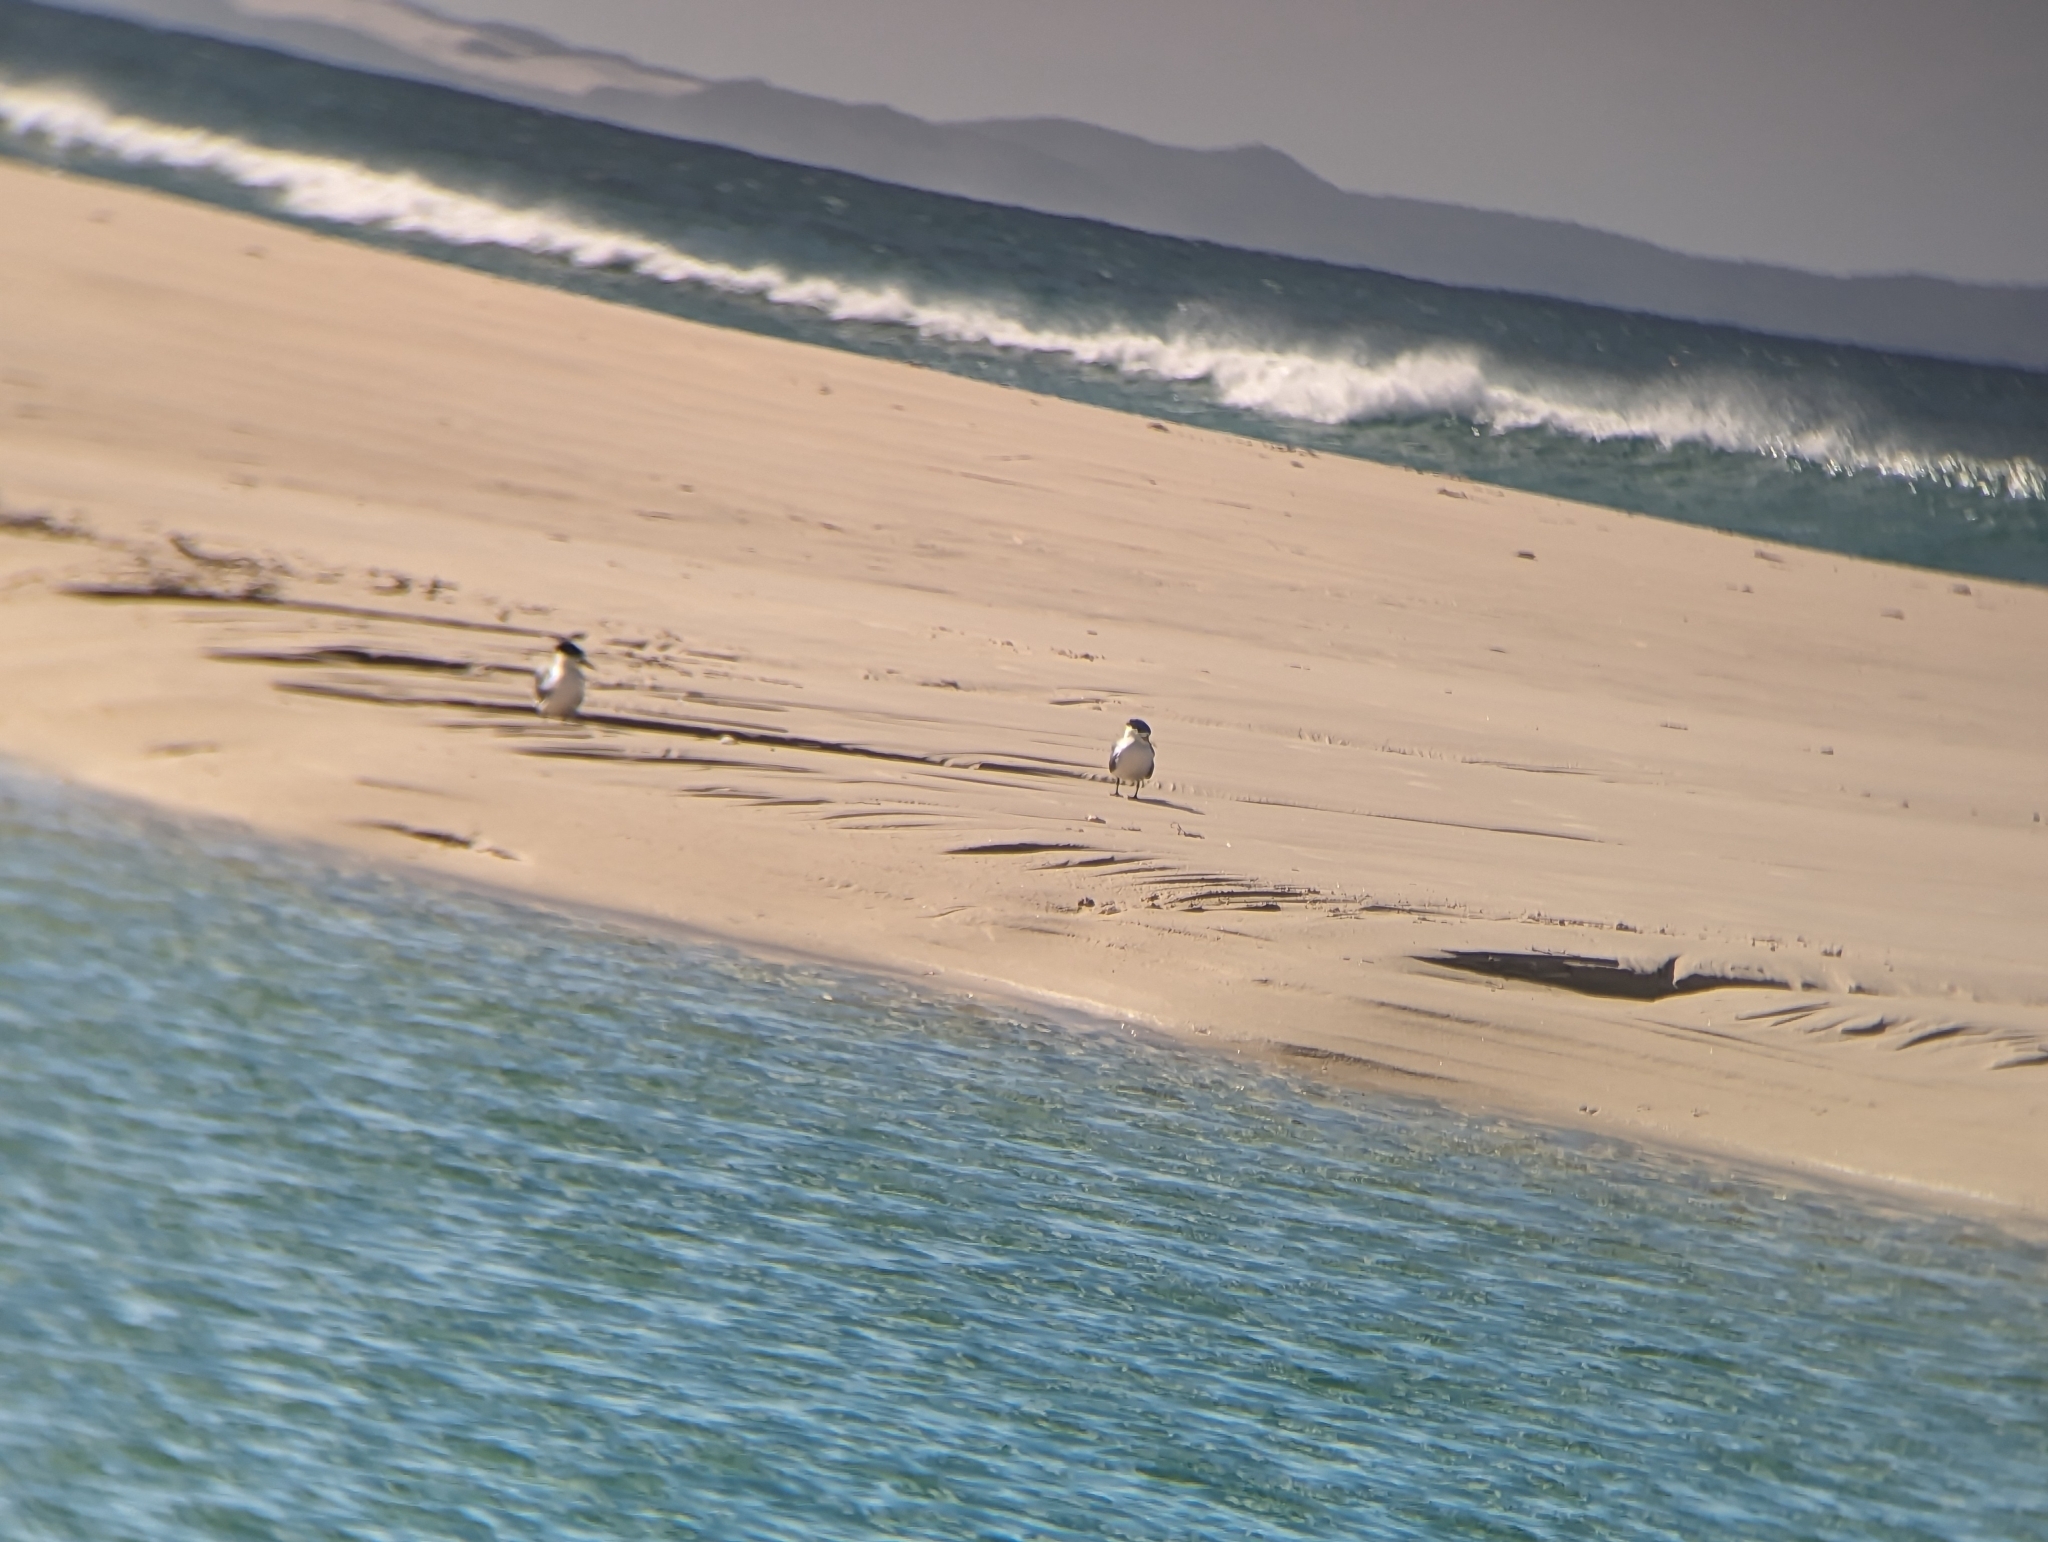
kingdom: Animalia
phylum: Chordata
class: Aves
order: Charadriiformes
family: Laridae
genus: Thalasseus
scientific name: Thalasseus bergii
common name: Greater crested tern
